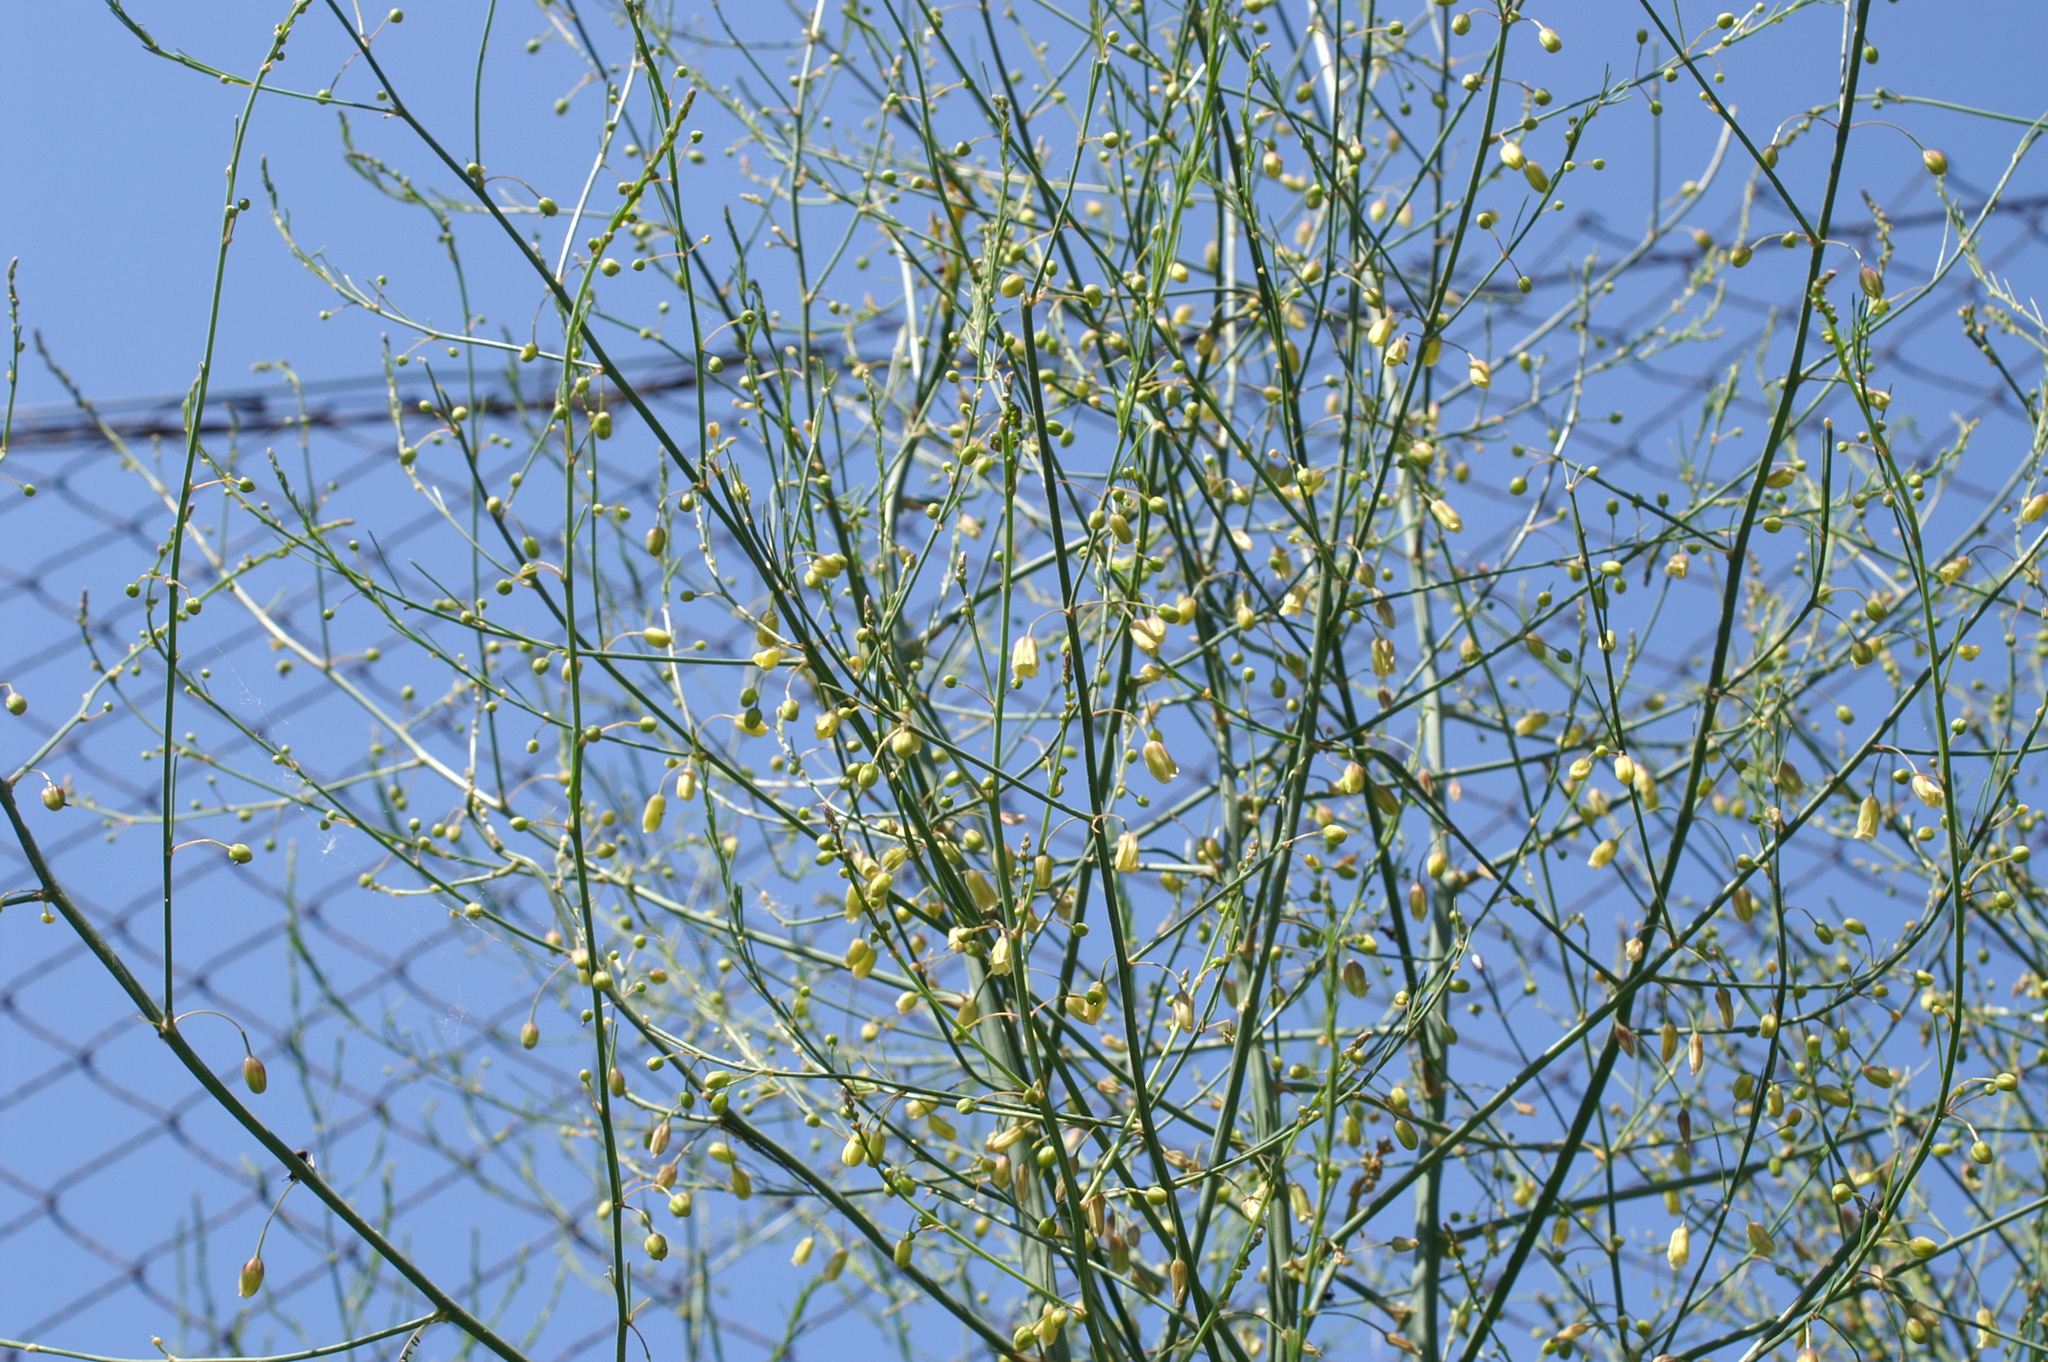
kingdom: Plantae
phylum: Tracheophyta
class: Liliopsida
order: Asparagales
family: Asparagaceae
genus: Asparagus
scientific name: Asparagus officinalis
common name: Garden asparagus
